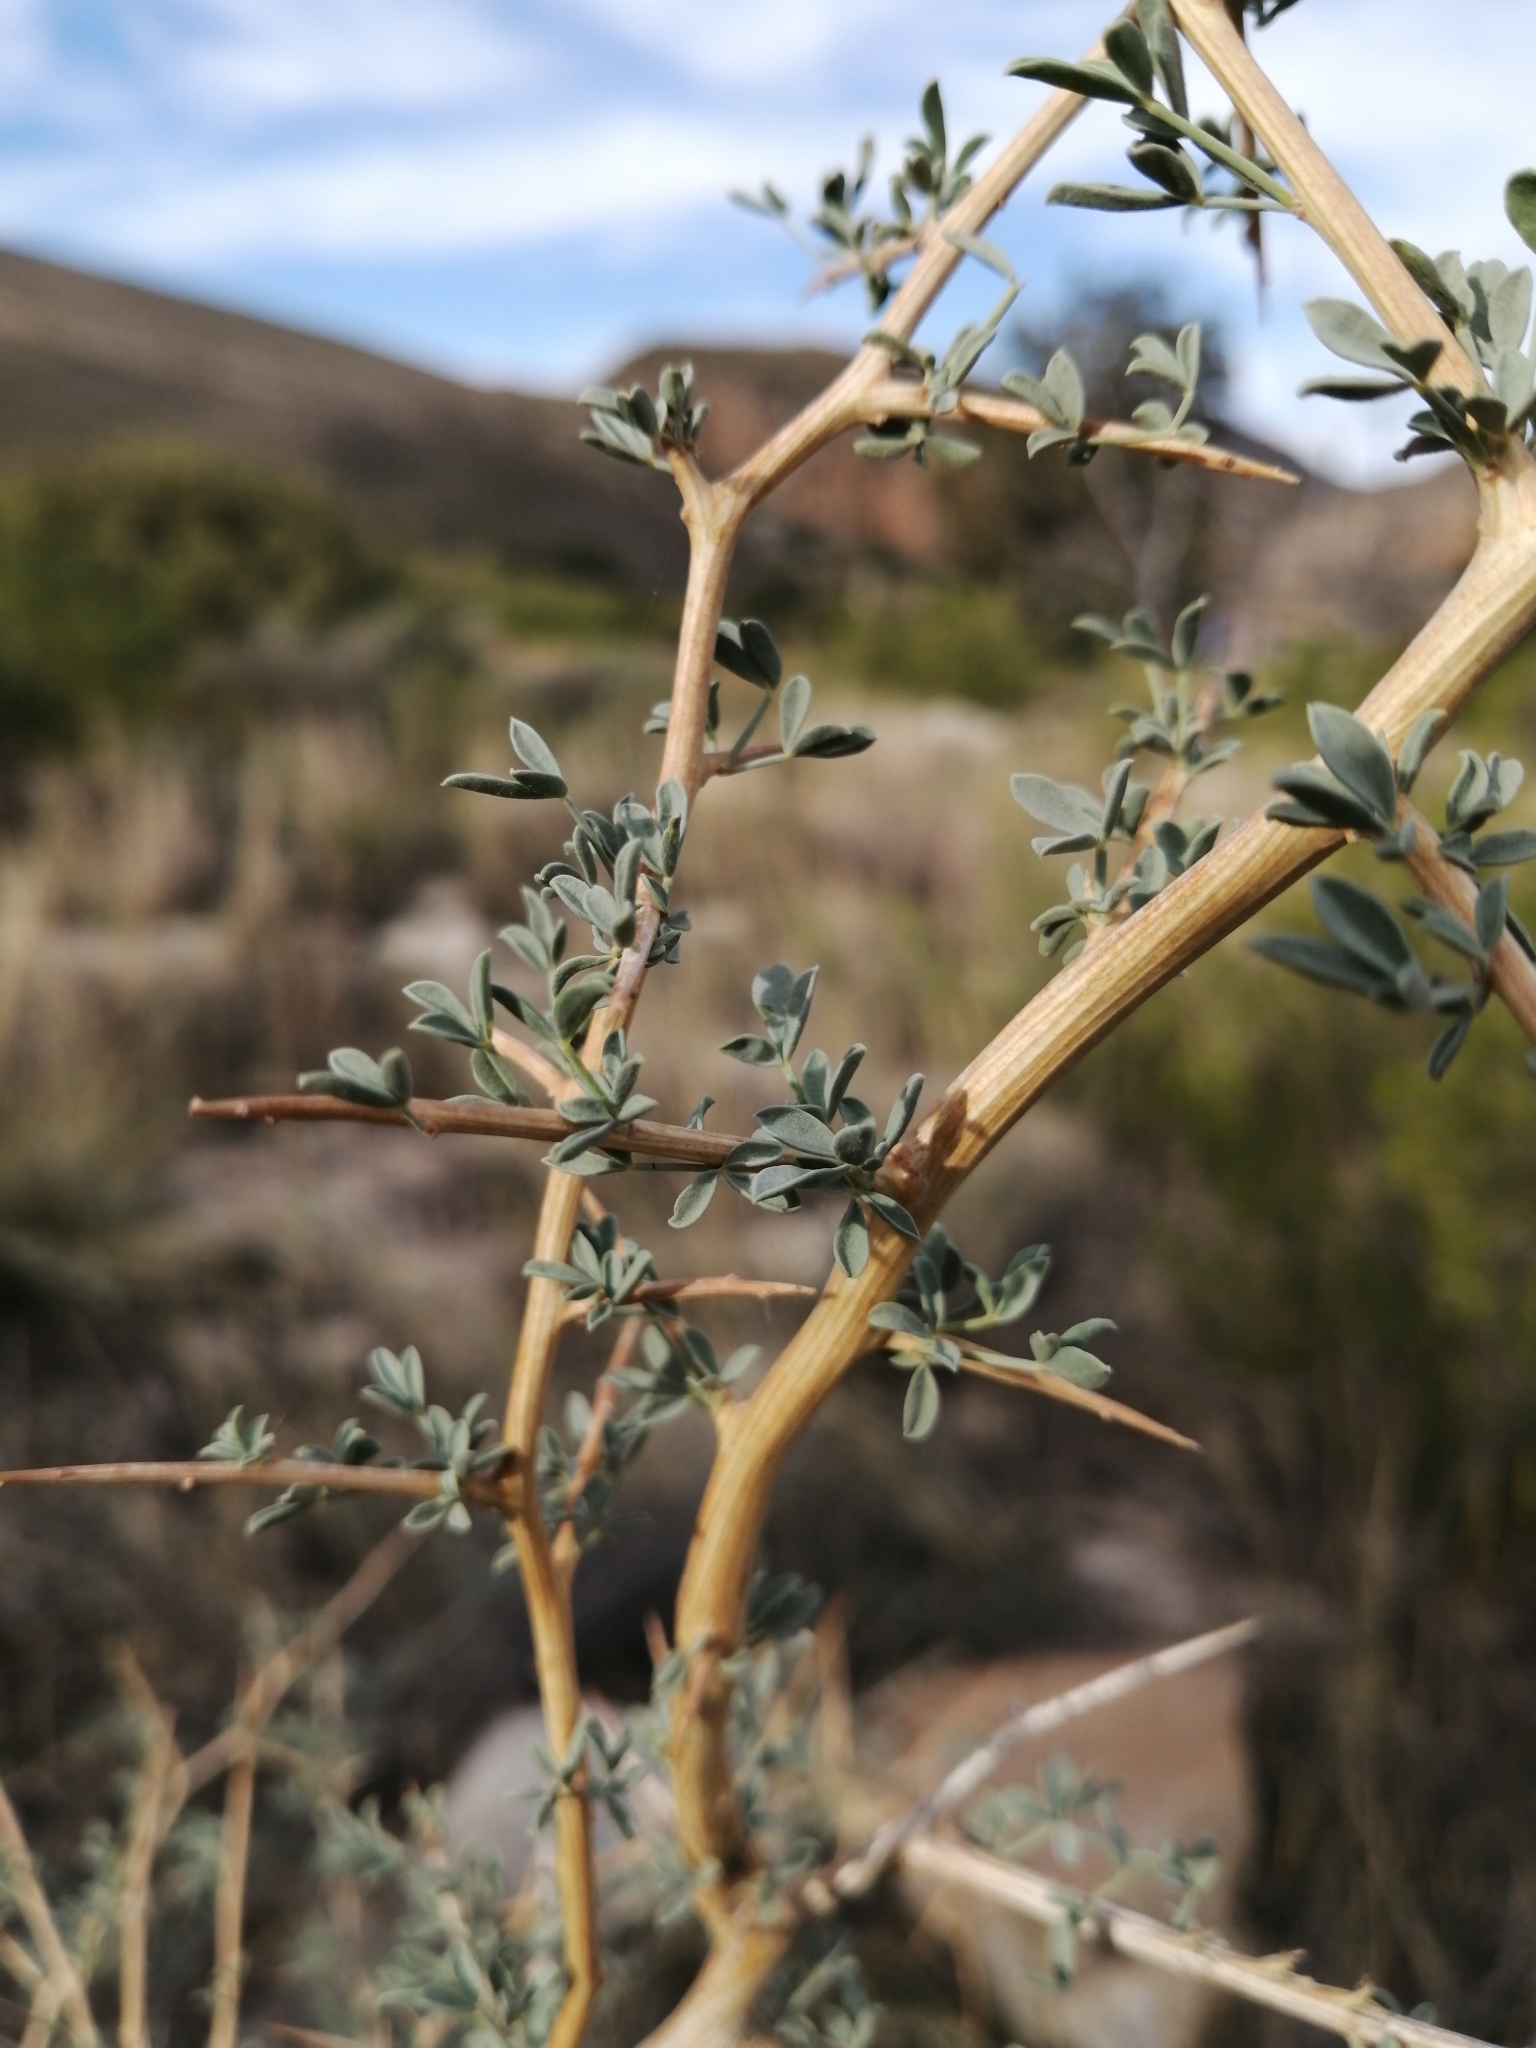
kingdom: Plantae
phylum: Tracheophyta
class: Magnoliopsida
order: Fabales
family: Fabaceae
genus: Wiborgia
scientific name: Wiborgia mucronata
